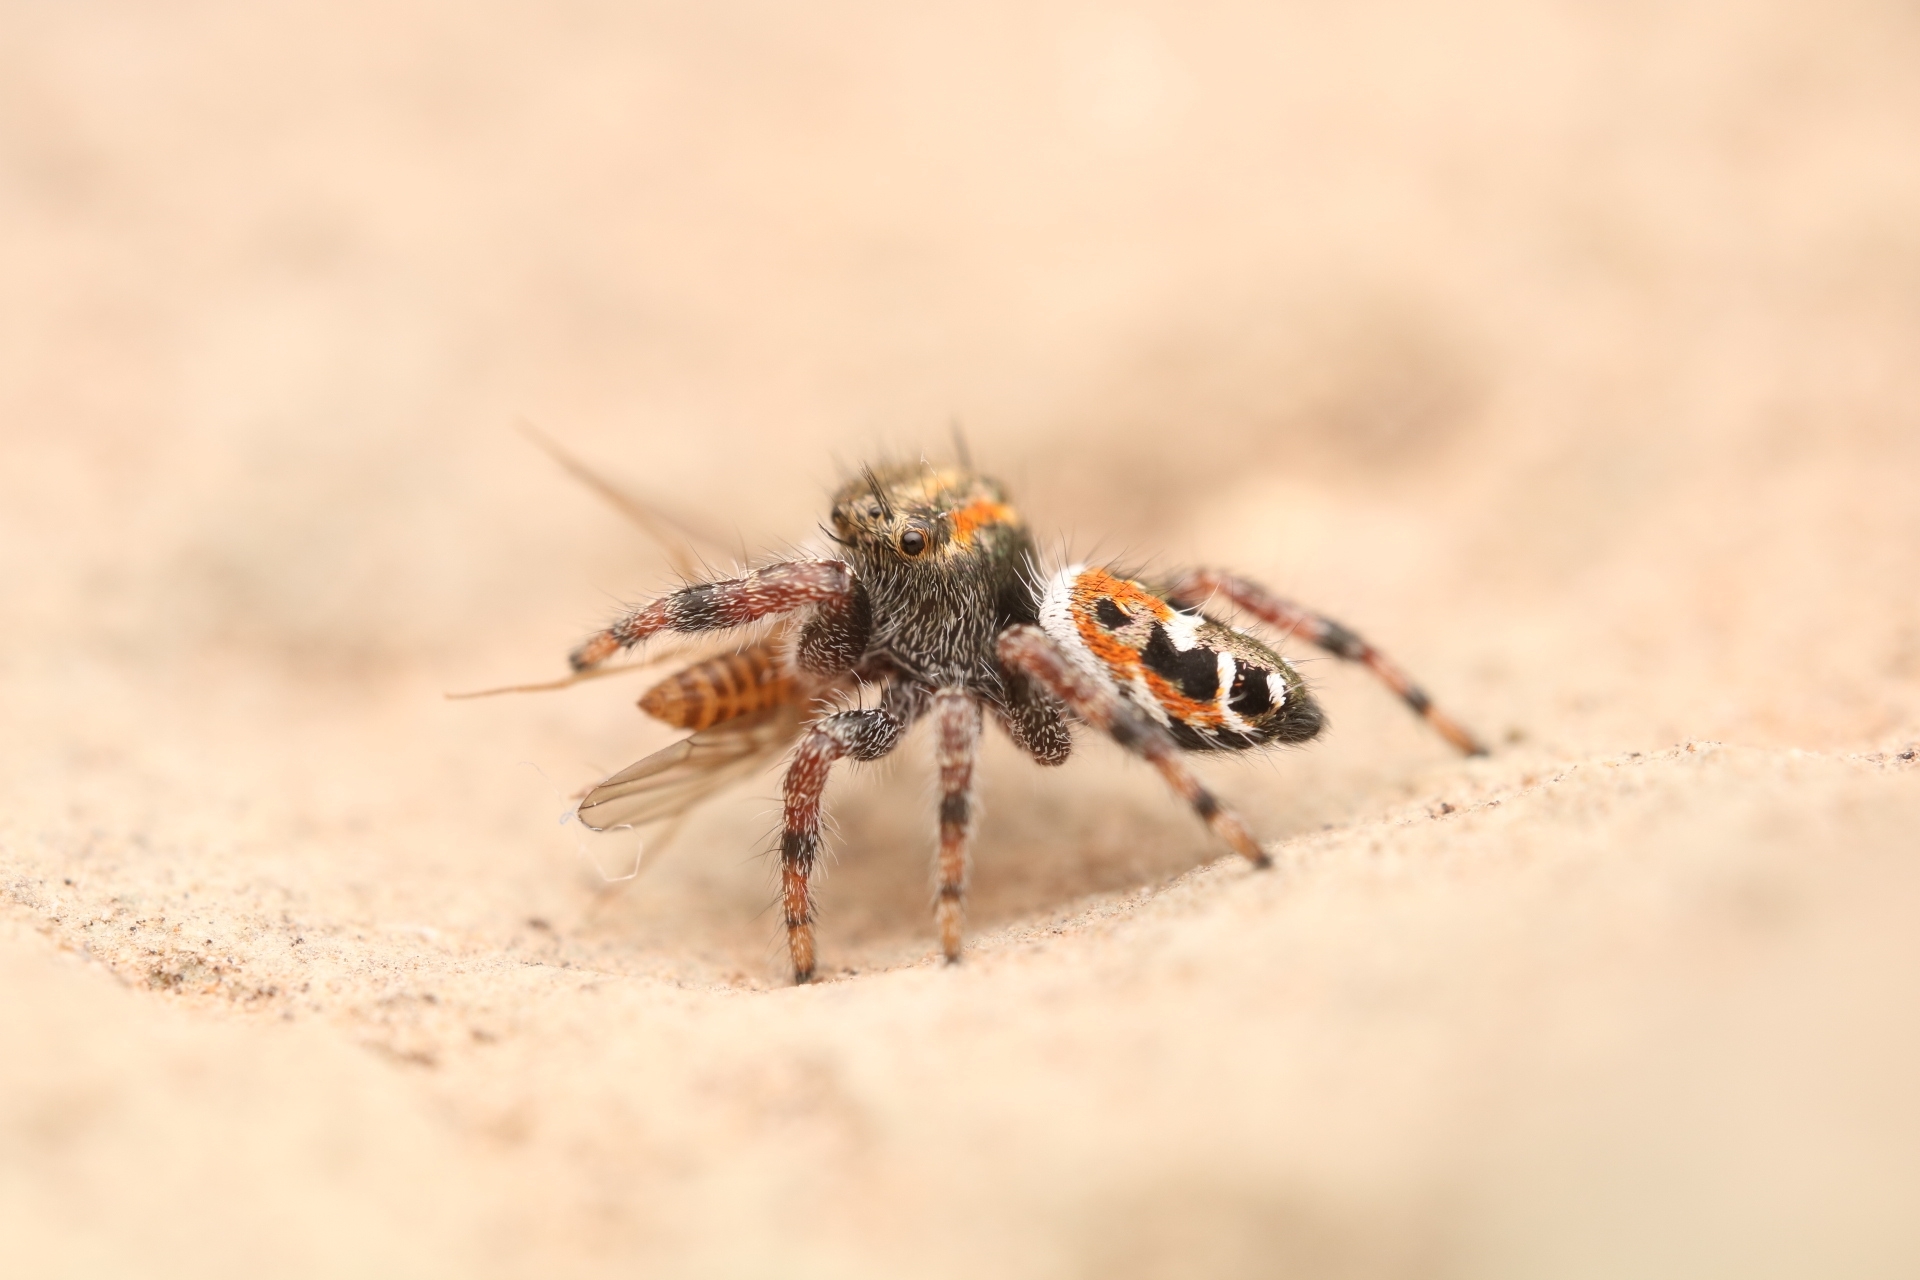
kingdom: Animalia
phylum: Arthropoda
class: Arachnida
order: Araneae
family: Salticidae
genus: Phidippus
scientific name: Phidippus vexans
